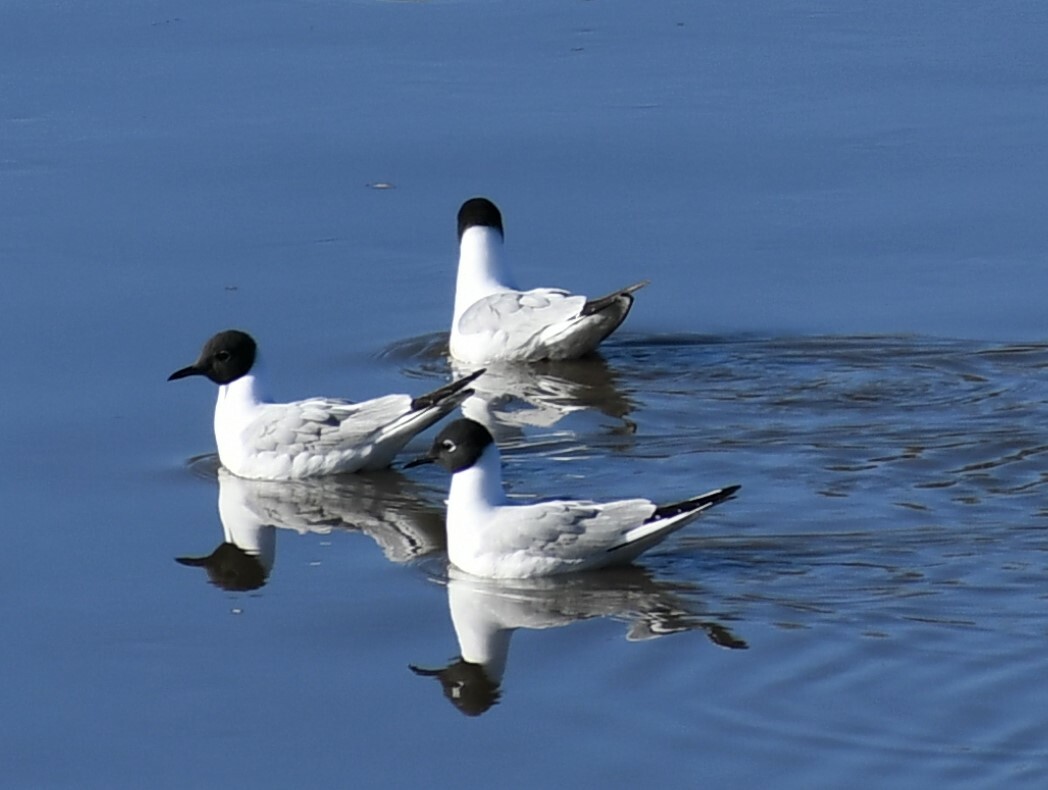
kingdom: Animalia
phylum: Chordata
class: Aves
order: Charadriiformes
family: Laridae
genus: Chroicocephalus
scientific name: Chroicocephalus philadelphia
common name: Bonaparte's gull
